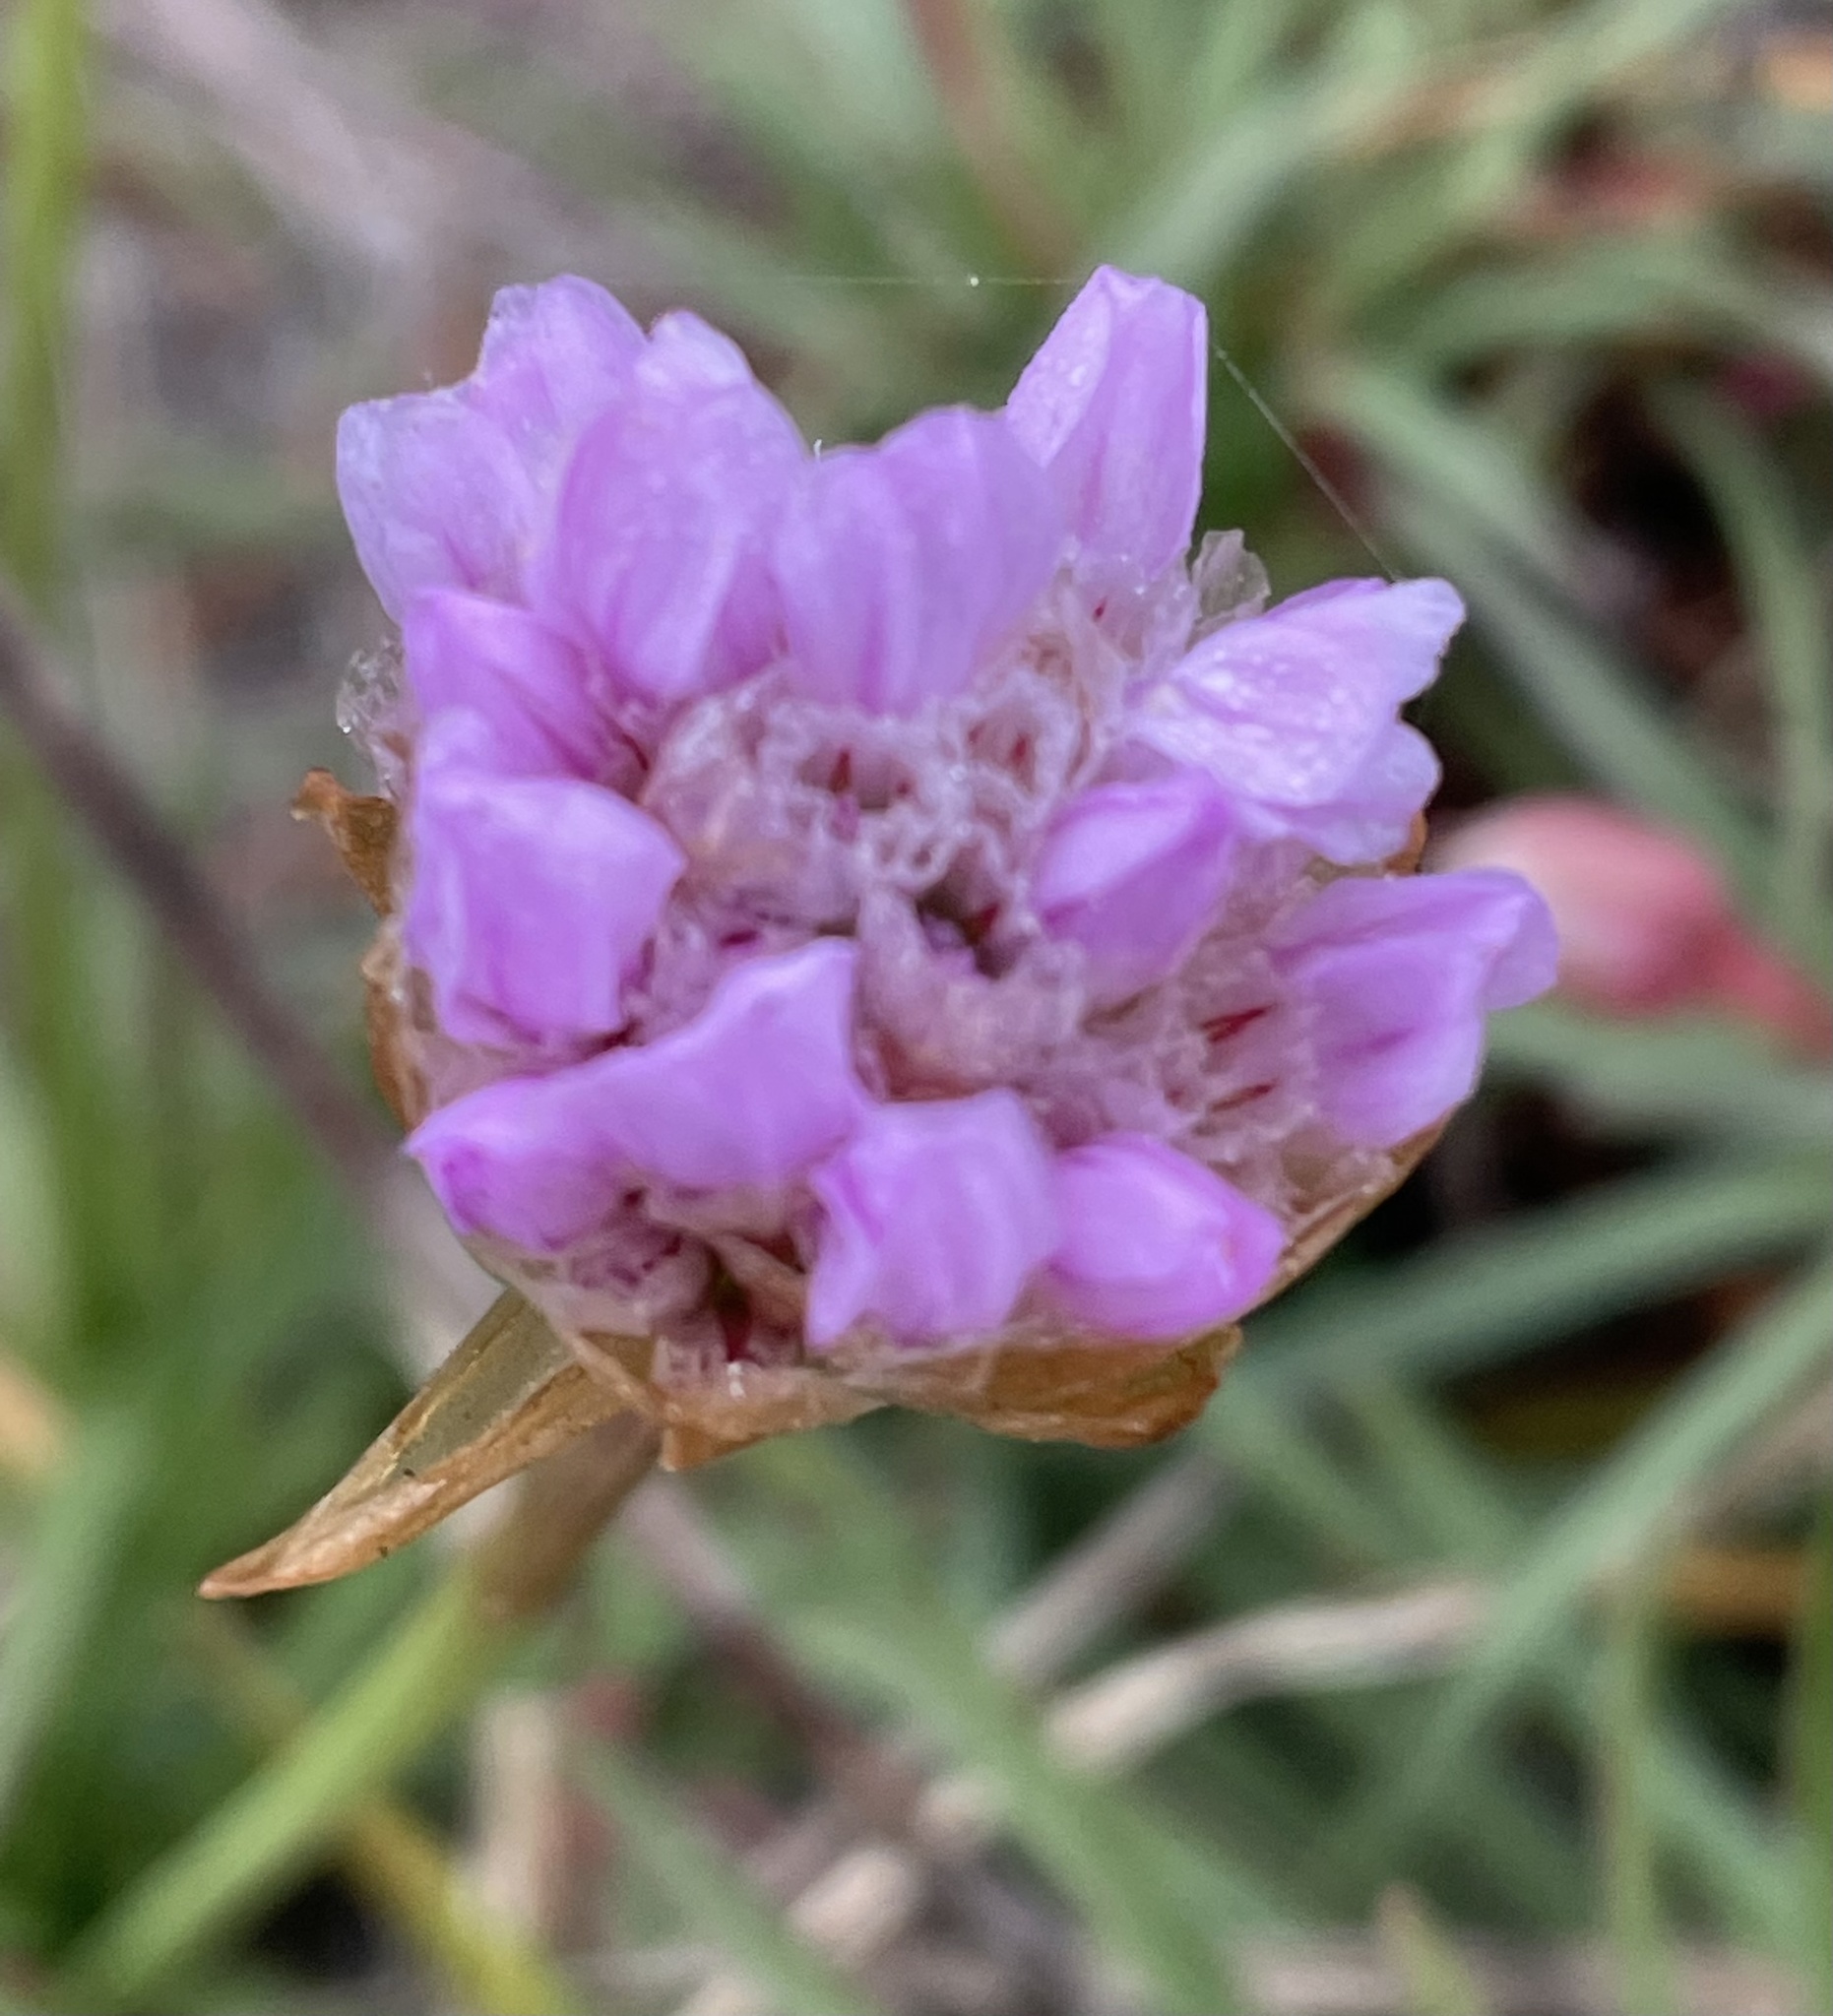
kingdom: Plantae
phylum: Tracheophyta
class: Magnoliopsida
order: Caryophyllales
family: Plumbaginaceae
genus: Armeria
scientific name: Armeria maritima
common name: Thrift
